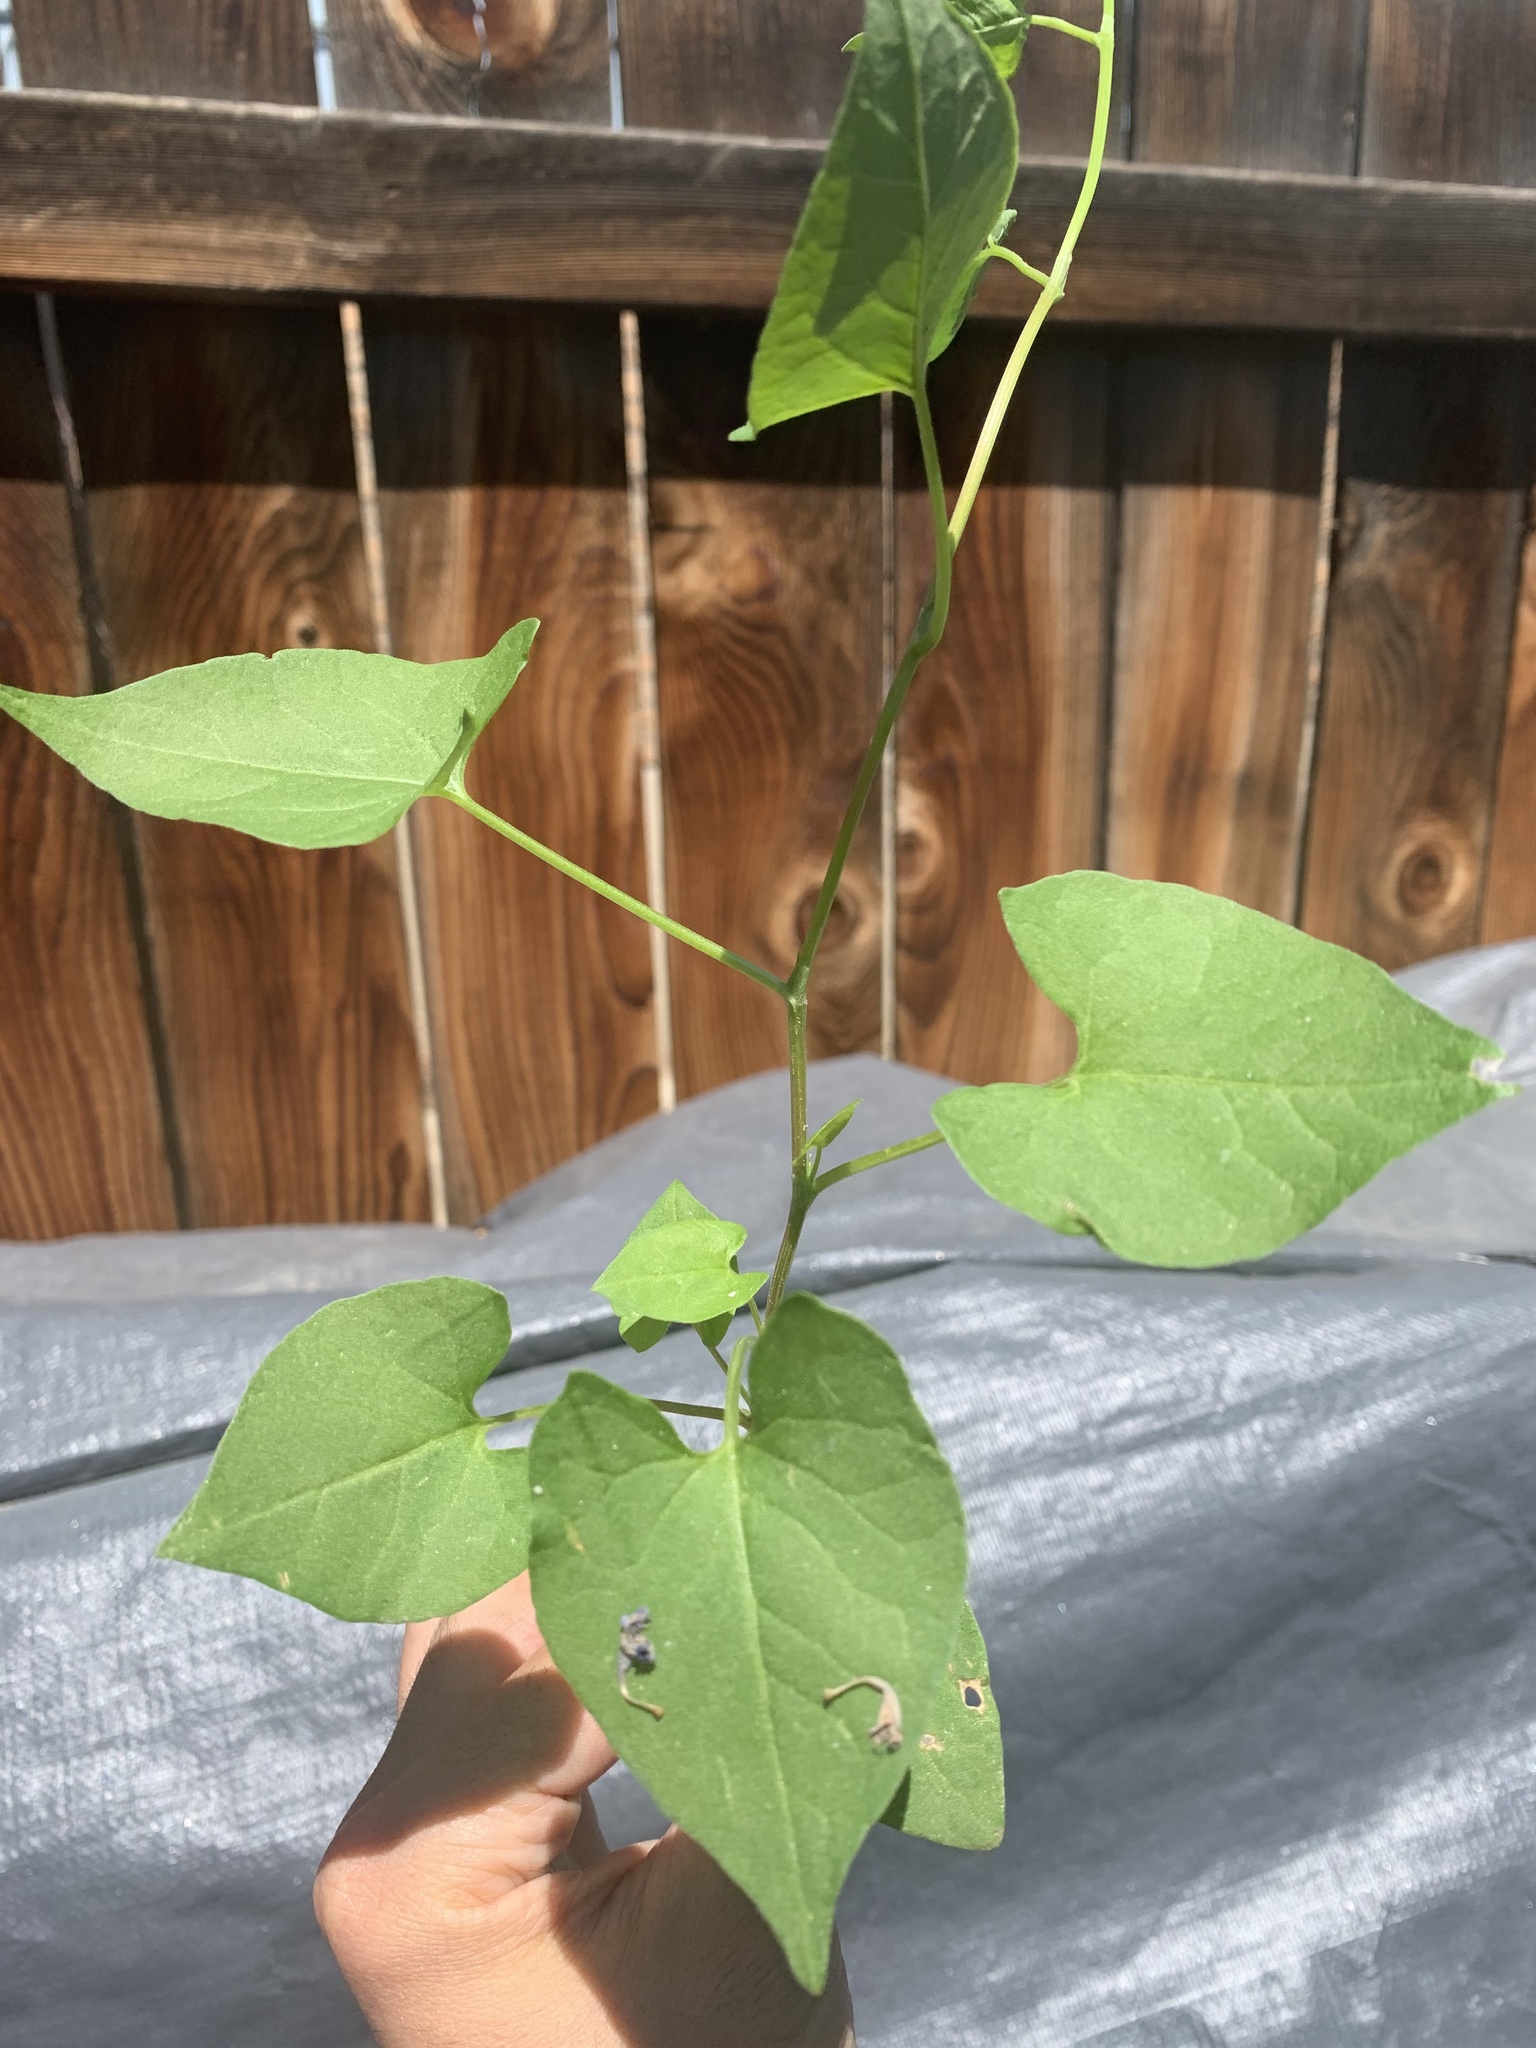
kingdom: Plantae
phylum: Tracheophyta
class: Magnoliopsida
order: Caryophyllales
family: Polygonaceae
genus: Fallopia
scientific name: Fallopia convolvulus
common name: Black bindweed
